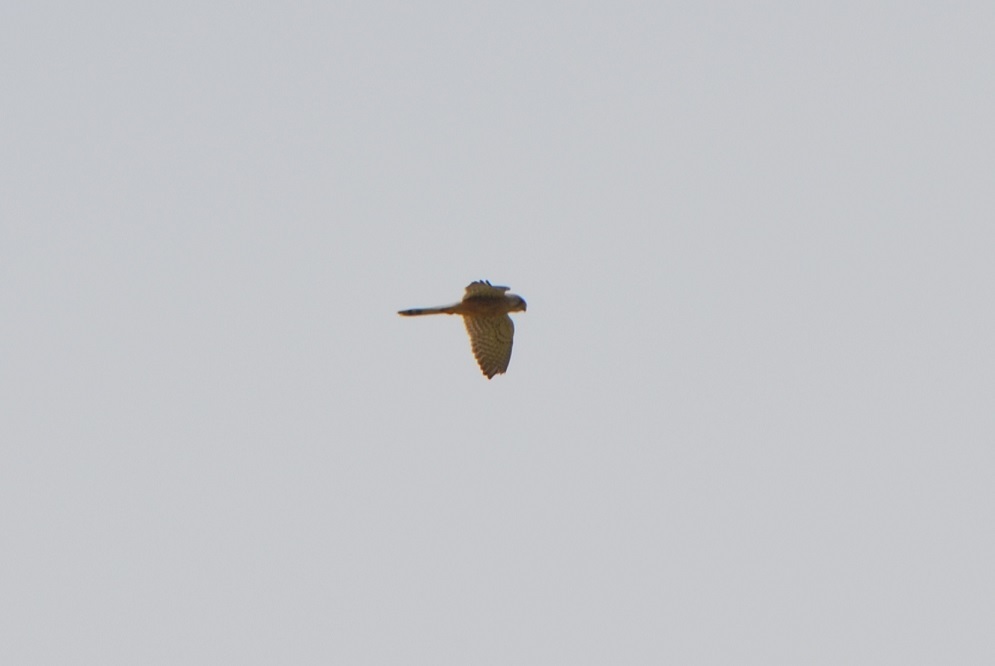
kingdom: Animalia
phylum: Chordata
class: Aves
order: Falconiformes
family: Falconidae
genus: Falco
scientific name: Falco tinnunculus
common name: Common kestrel
